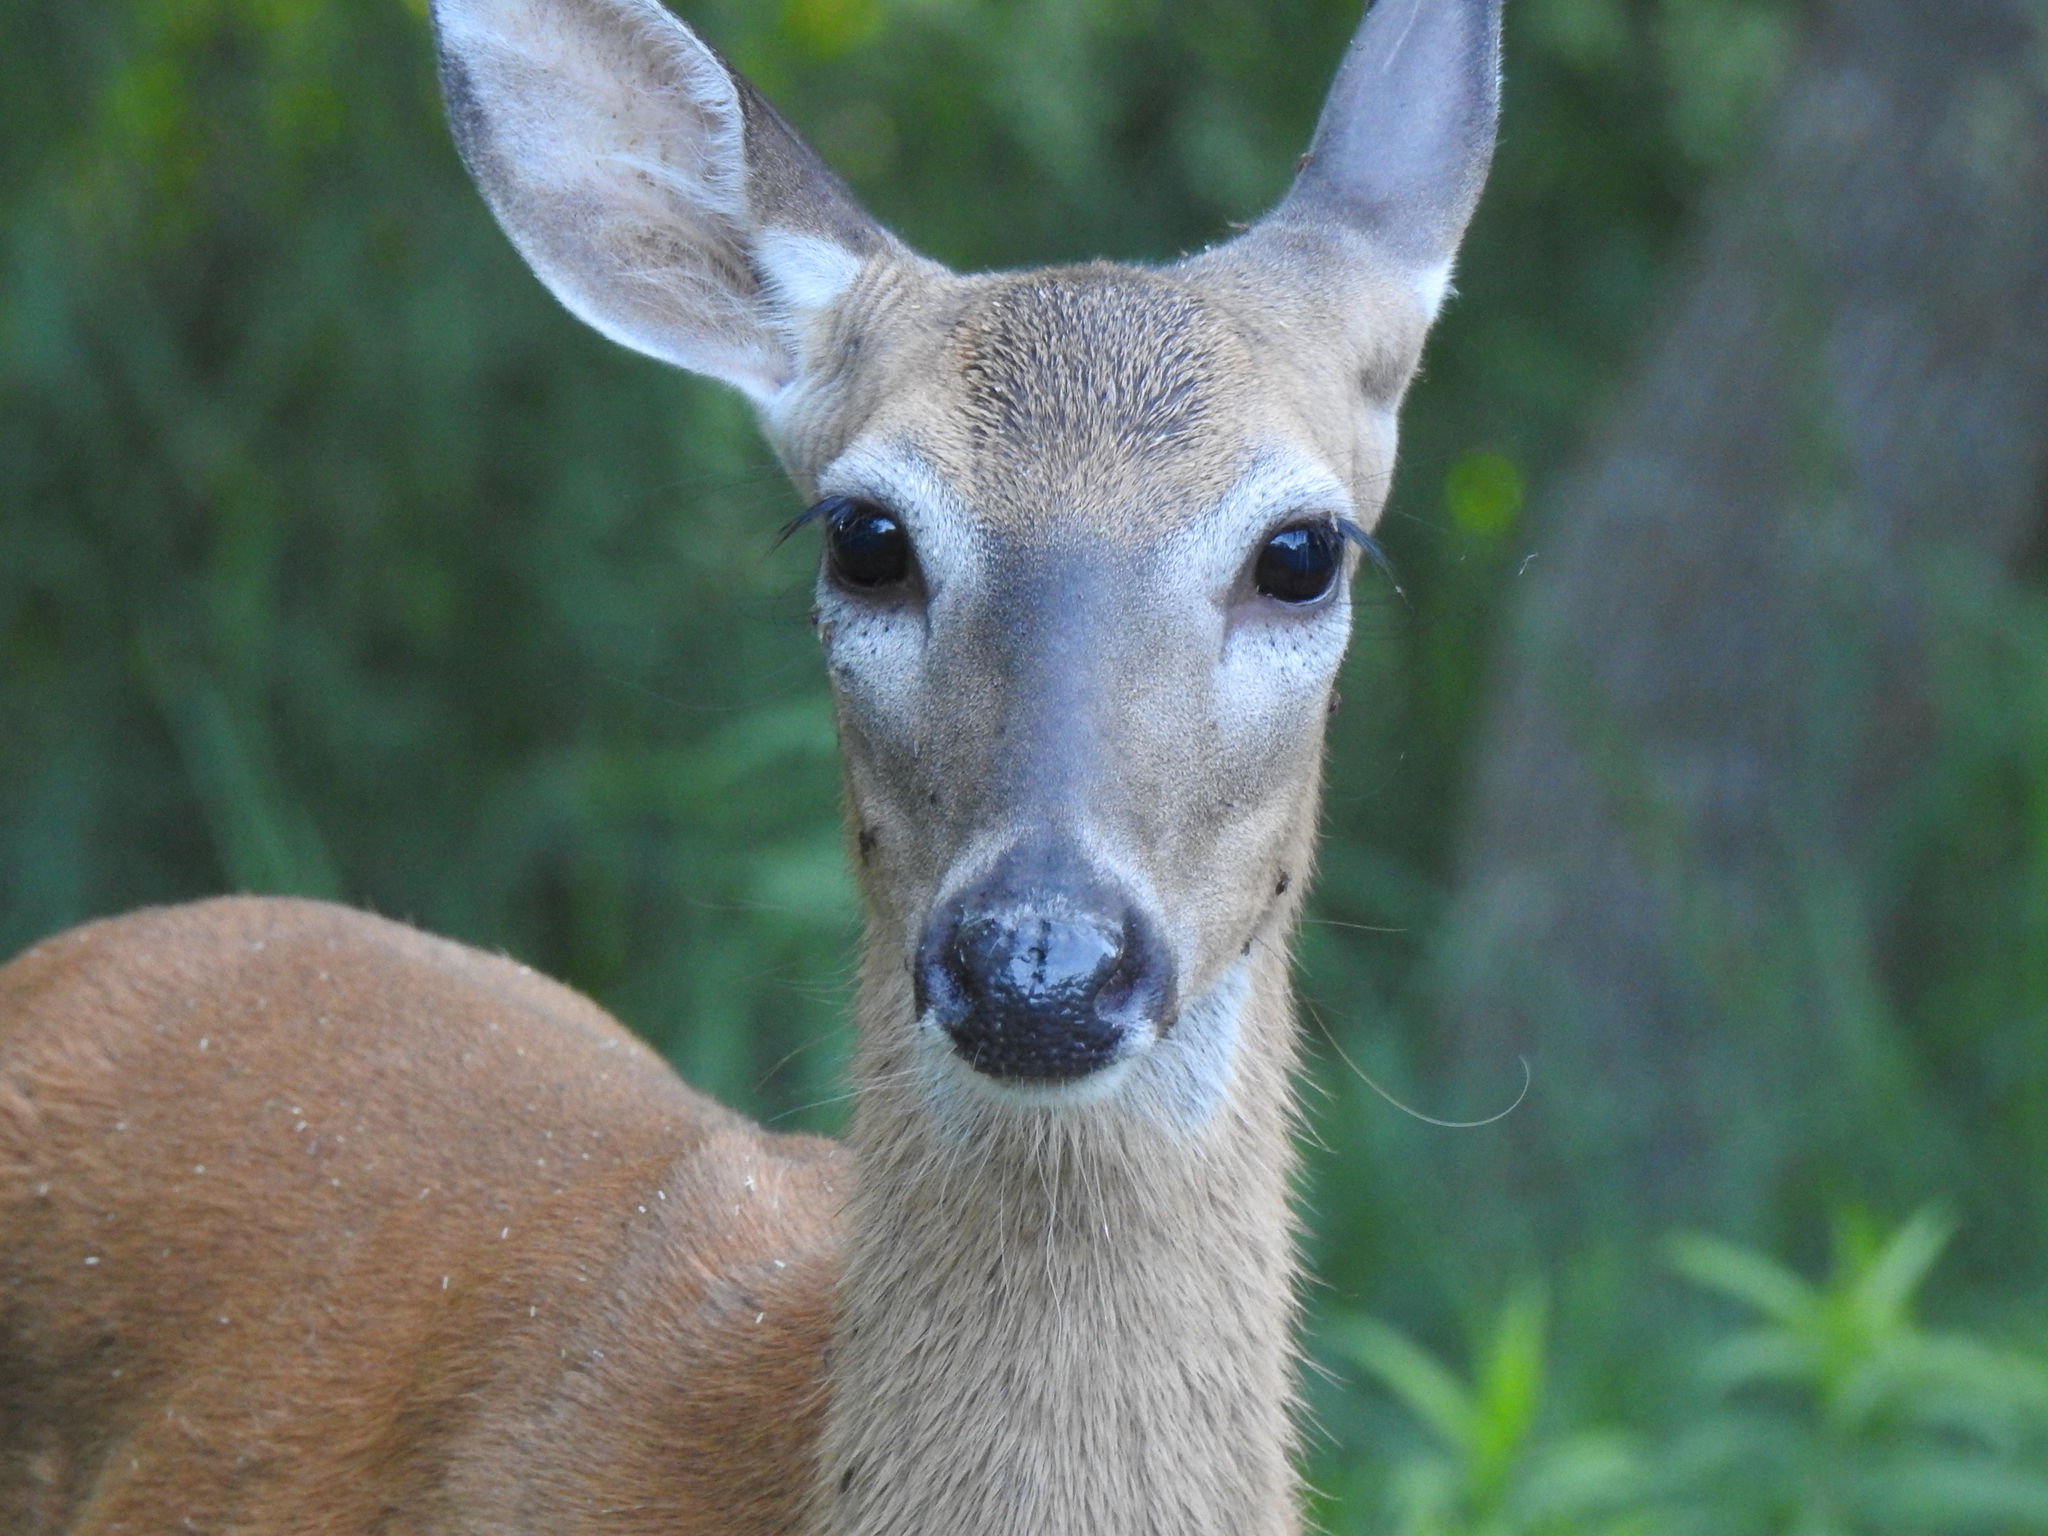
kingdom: Animalia
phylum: Chordata
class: Mammalia
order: Artiodactyla
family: Cervidae
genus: Odocoileus
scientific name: Odocoileus virginianus
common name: White-tailed deer
